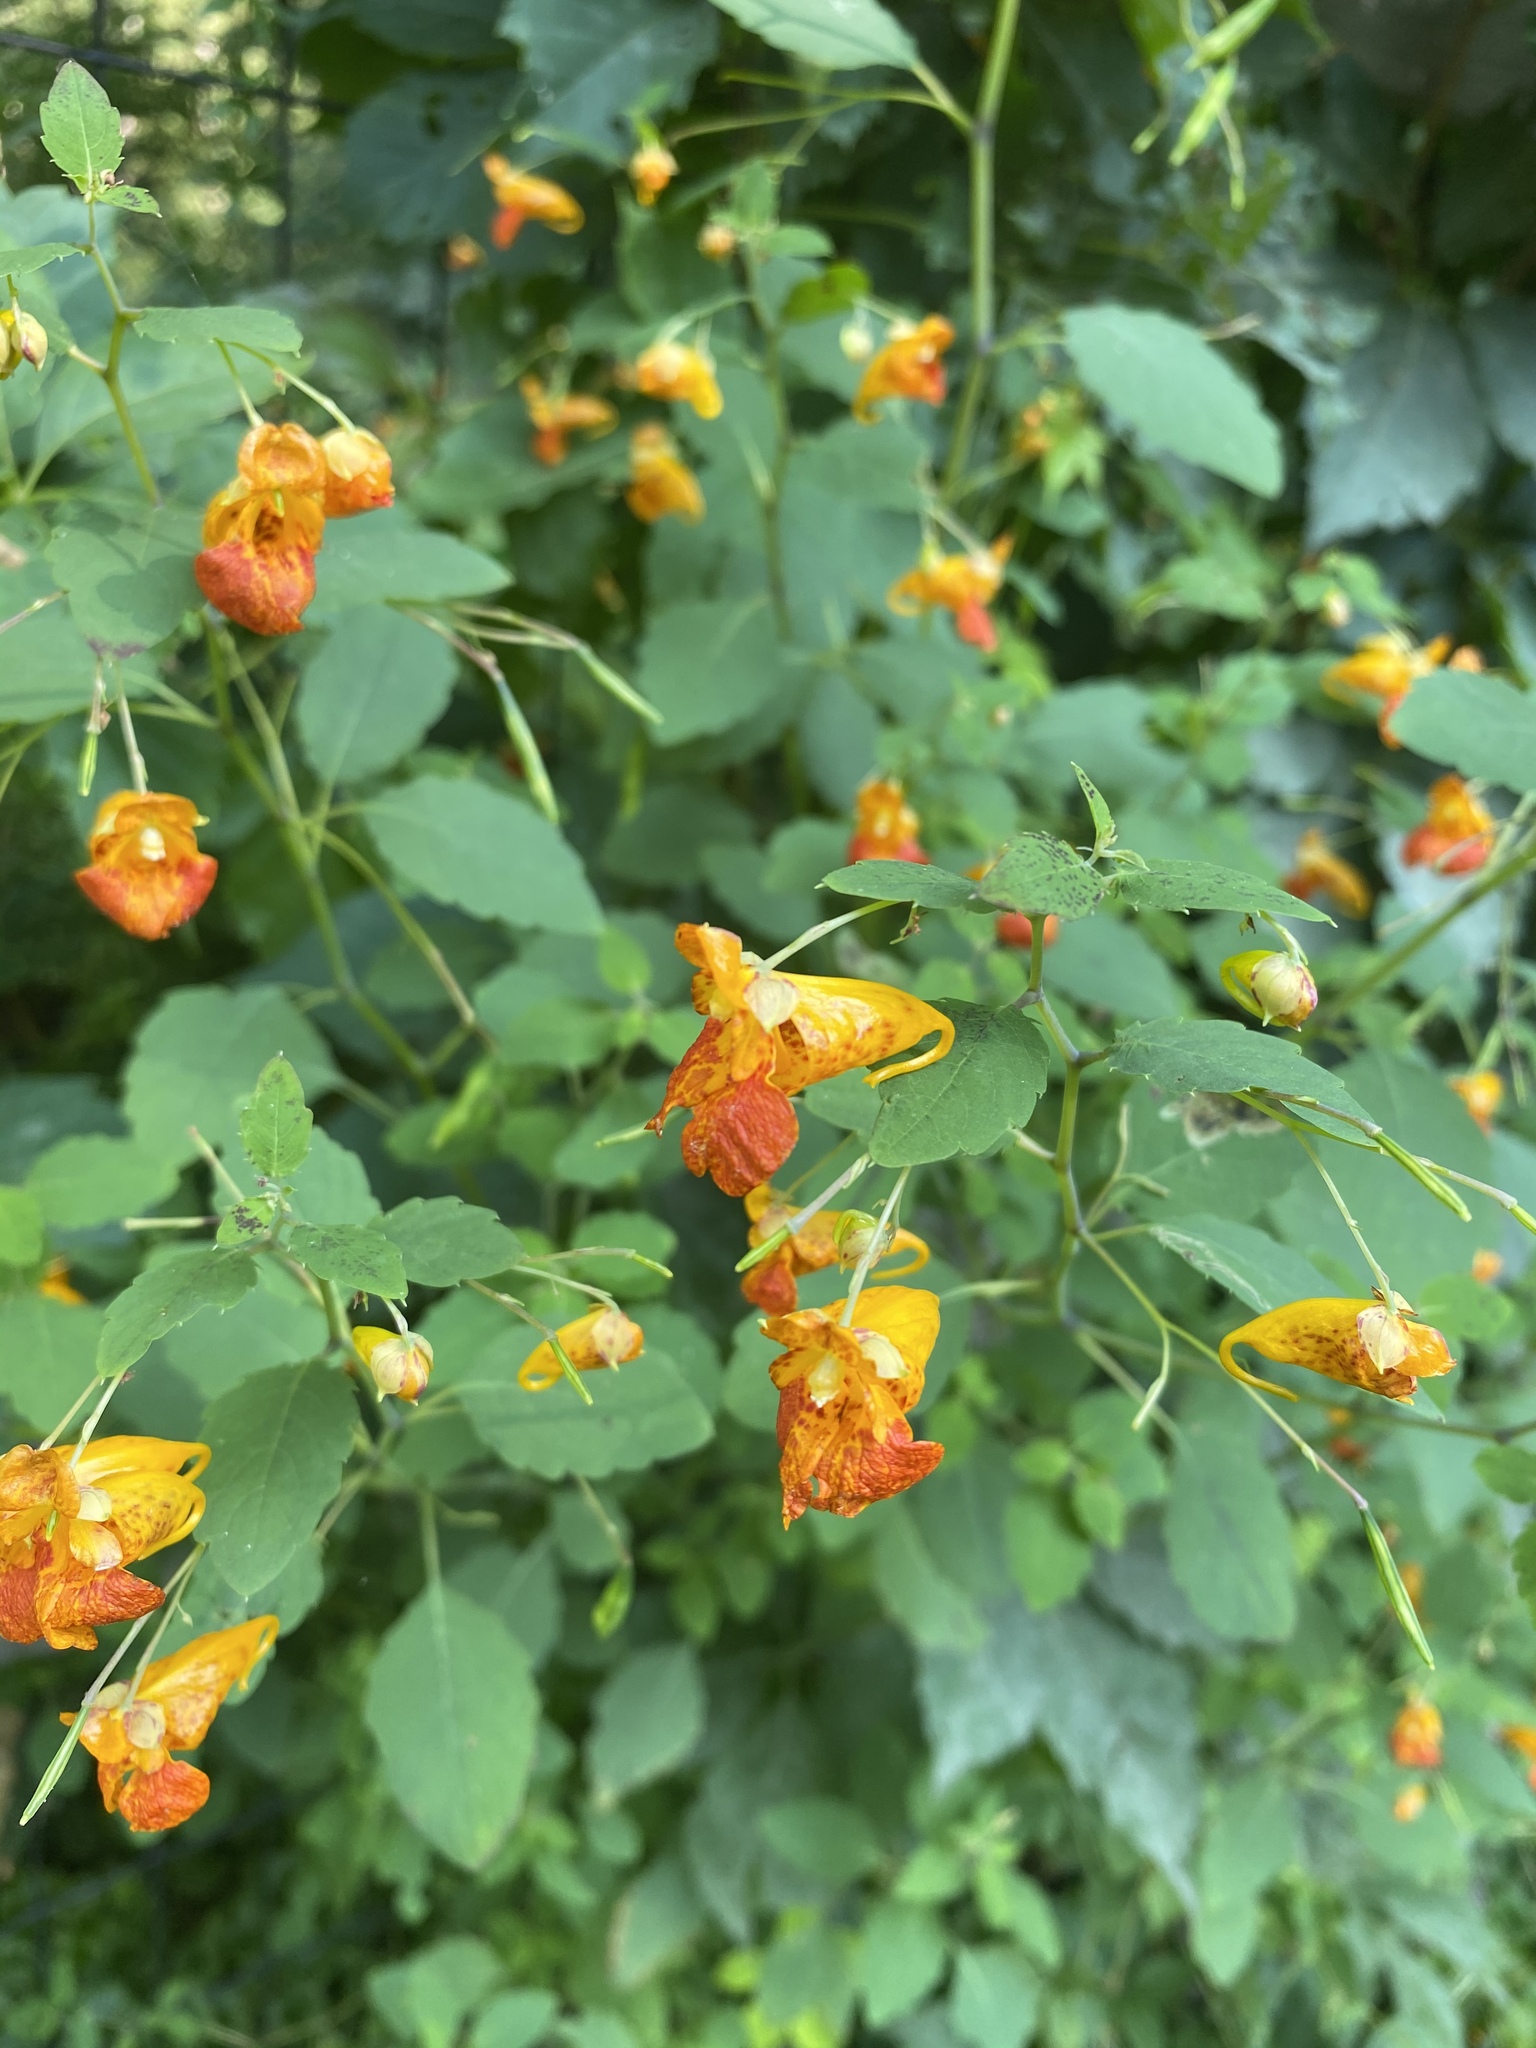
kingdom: Plantae
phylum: Tracheophyta
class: Magnoliopsida
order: Ericales
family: Balsaminaceae
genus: Impatiens
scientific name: Impatiens capensis
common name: Orange balsam
